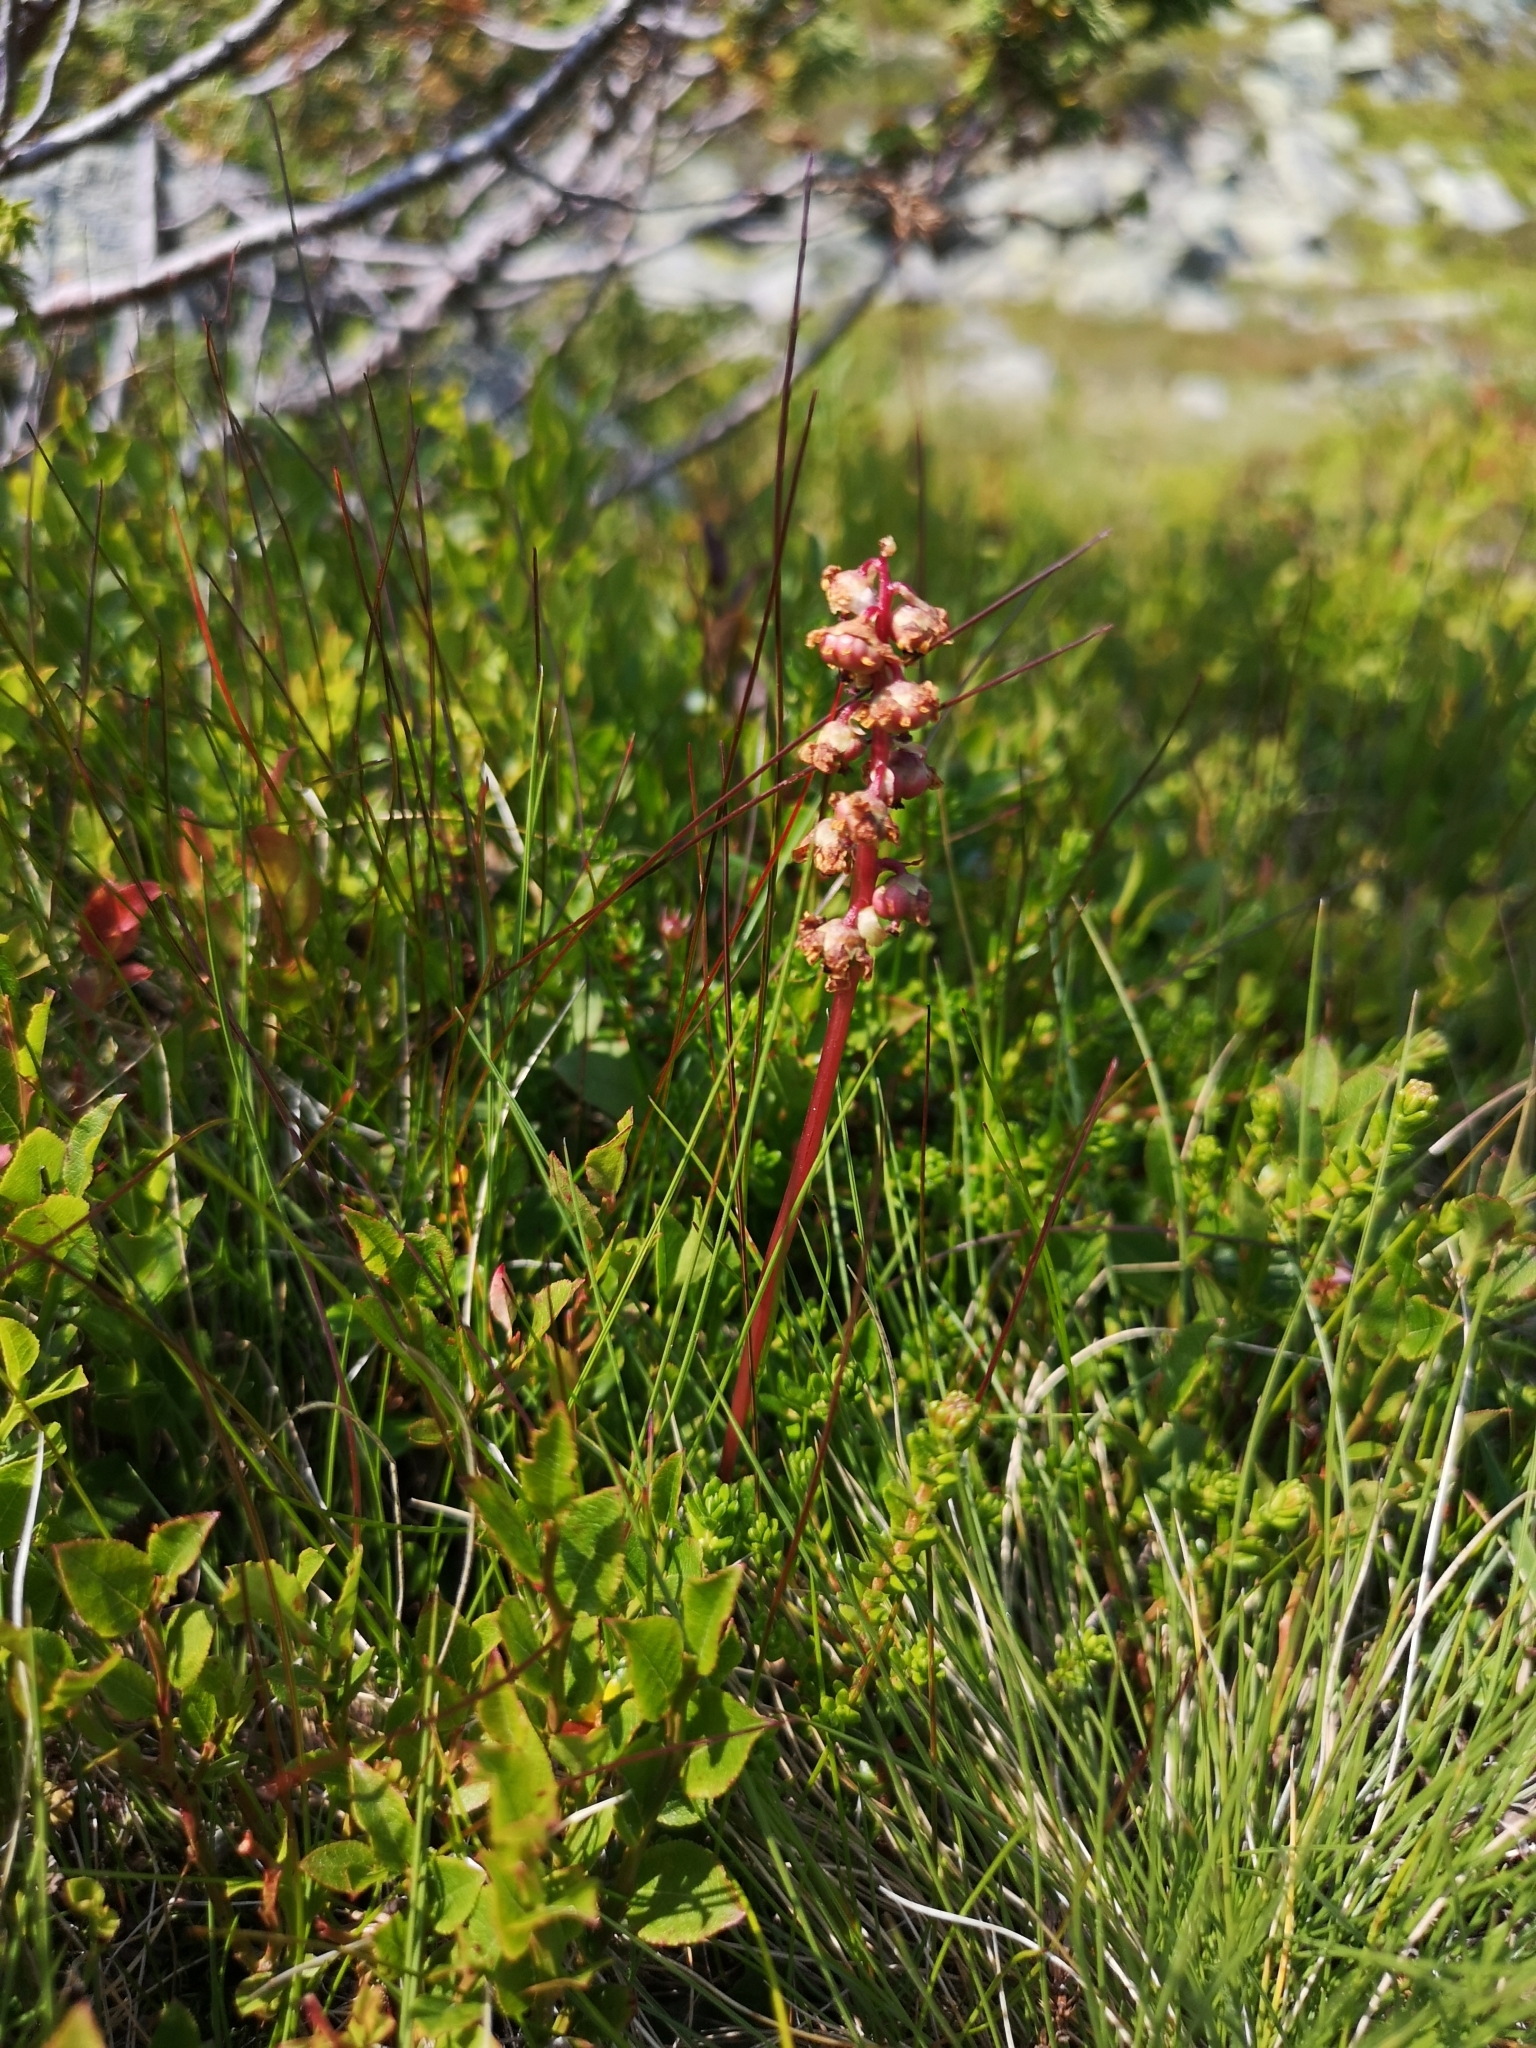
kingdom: Plantae
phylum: Tracheophyta
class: Magnoliopsida
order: Ericales
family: Ericaceae
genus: Pyrola
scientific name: Pyrola minor
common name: Common wintergreen
